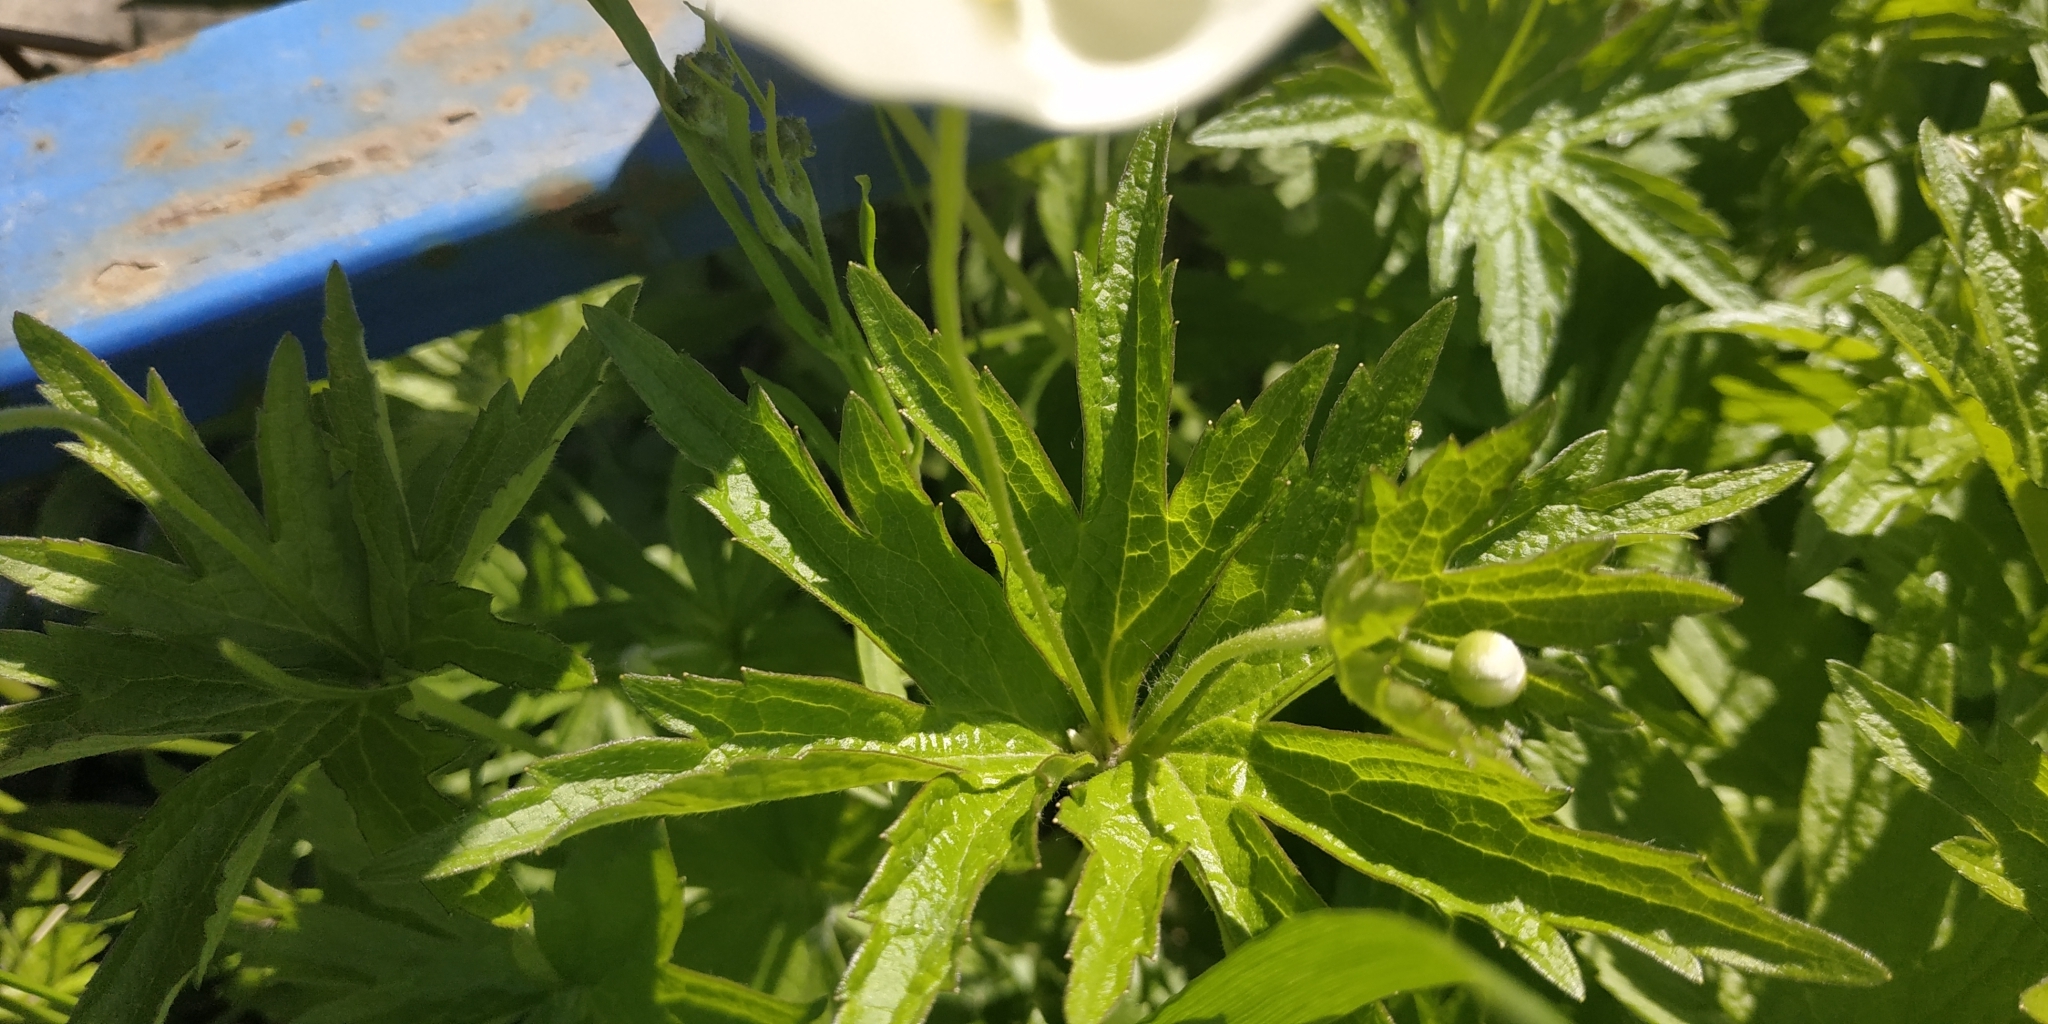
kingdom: Plantae
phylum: Tracheophyta
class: Magnoliopsida
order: Ranunculales
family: Ranunculaceae
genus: Anemonastrum
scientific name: Anemonastrum canadense
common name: Canada anemone
